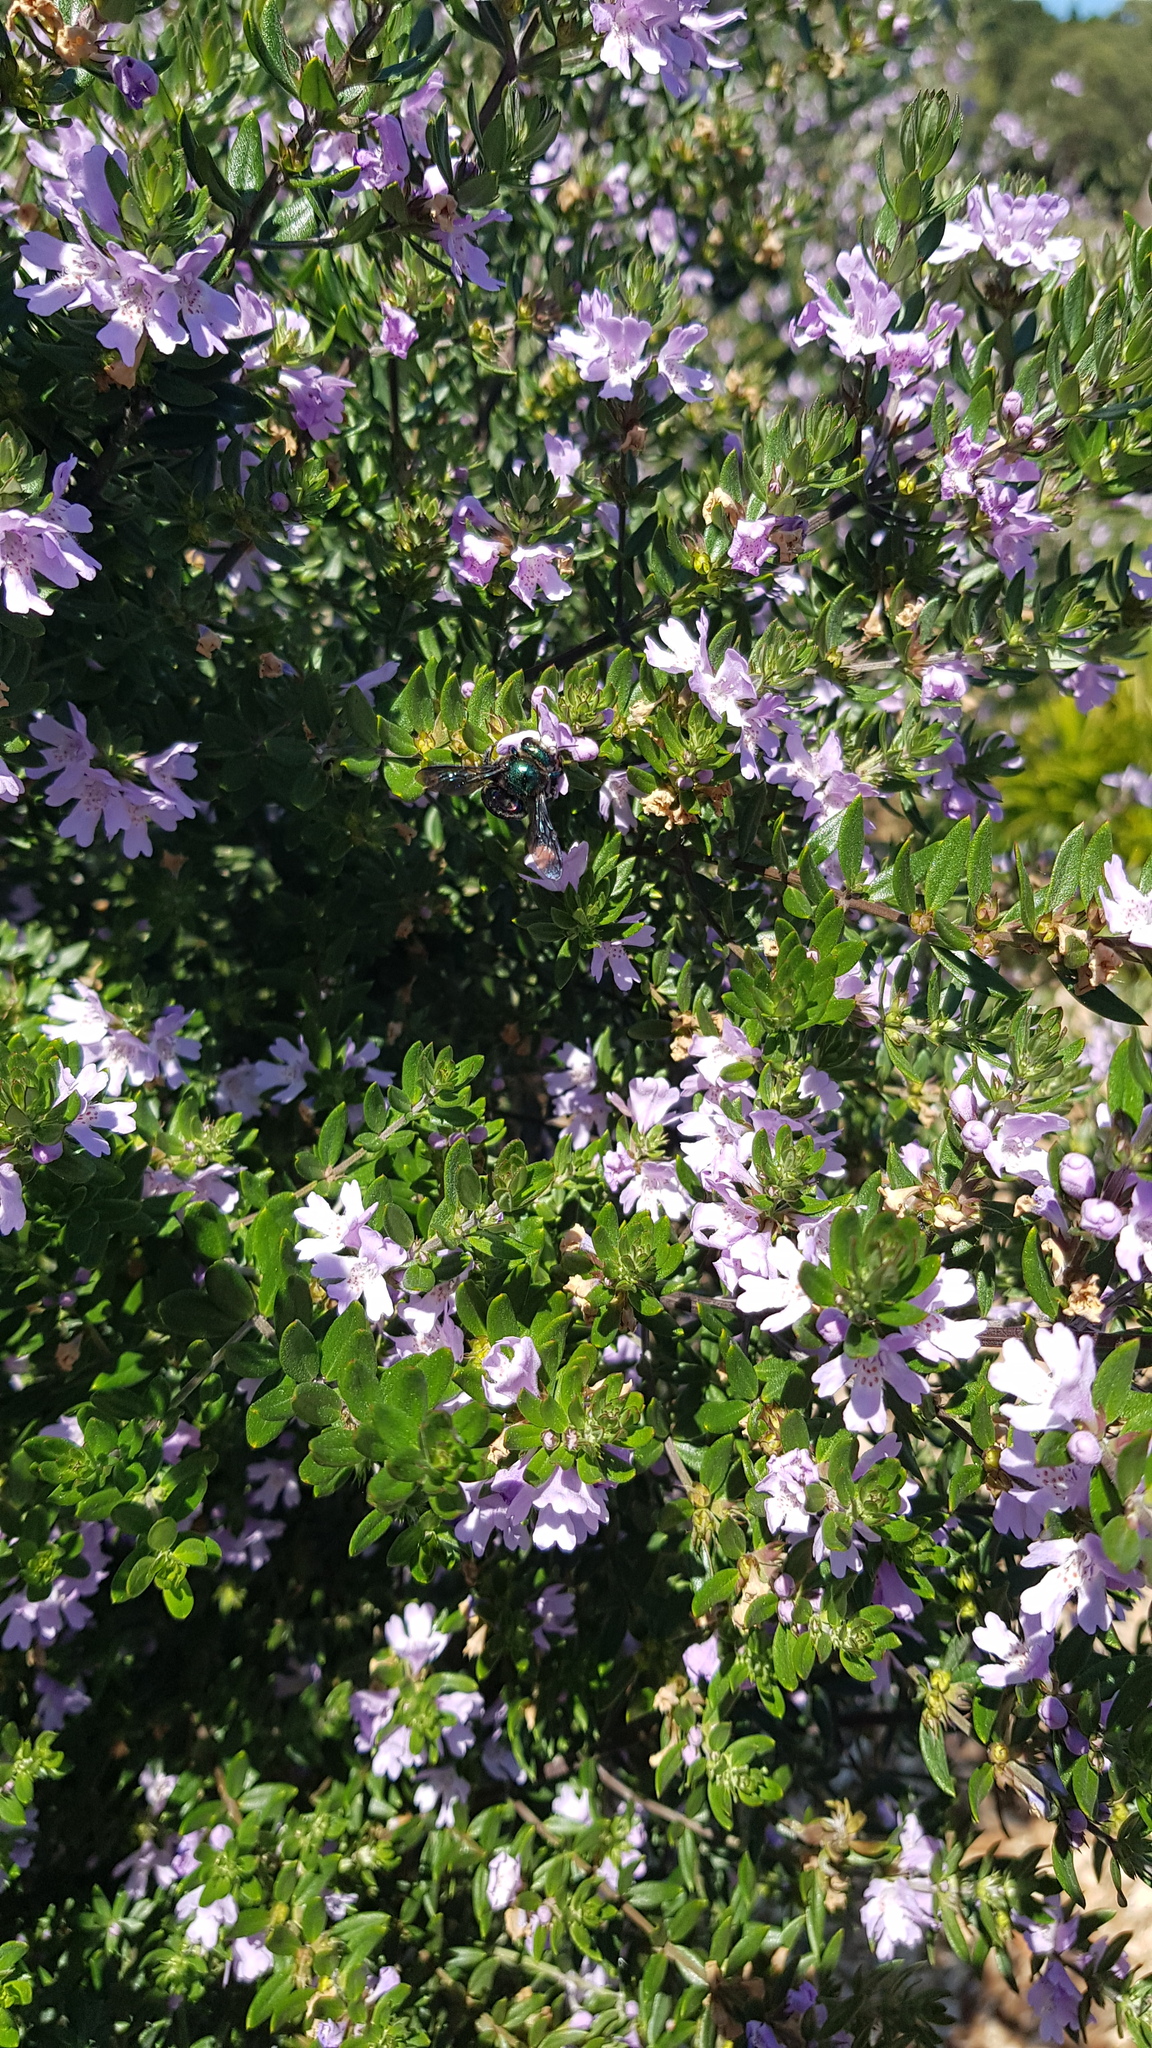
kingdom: Animalia
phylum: Arthropoda
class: Insecta
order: Hymenoptera
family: Apidae
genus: Xylocopa
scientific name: Xylocopa aeratus
